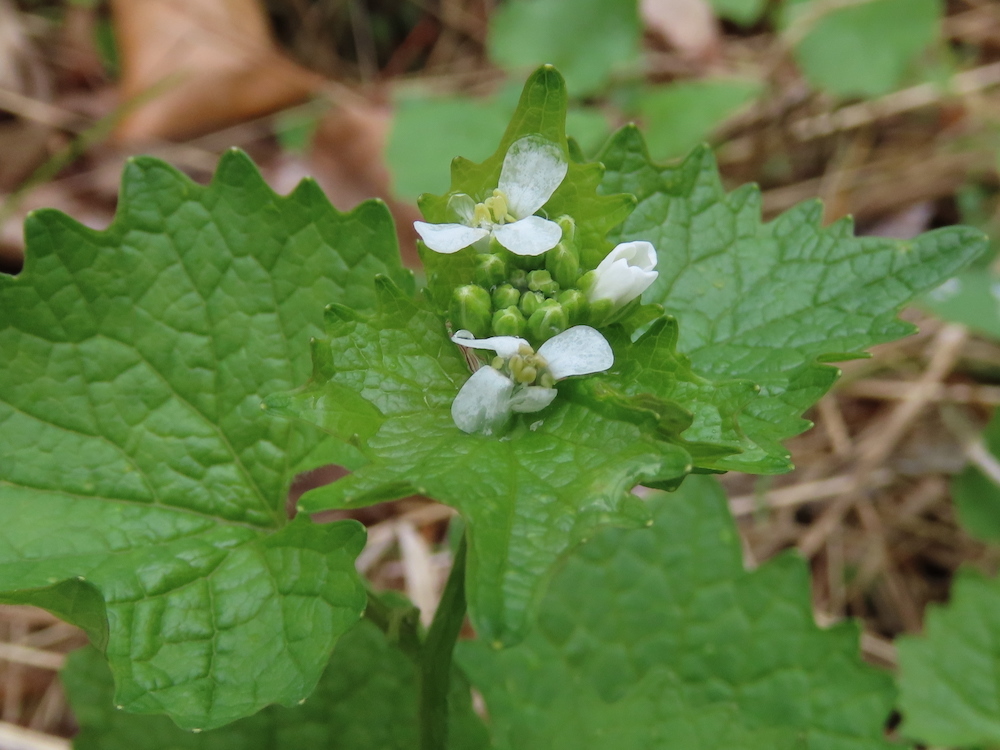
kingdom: Plantae
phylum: Tracheophyta
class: Magnoliopsida
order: Brassicales
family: Brassicaceae
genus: Alliaria
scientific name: Alliaria petiolata
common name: Garlic mustard
